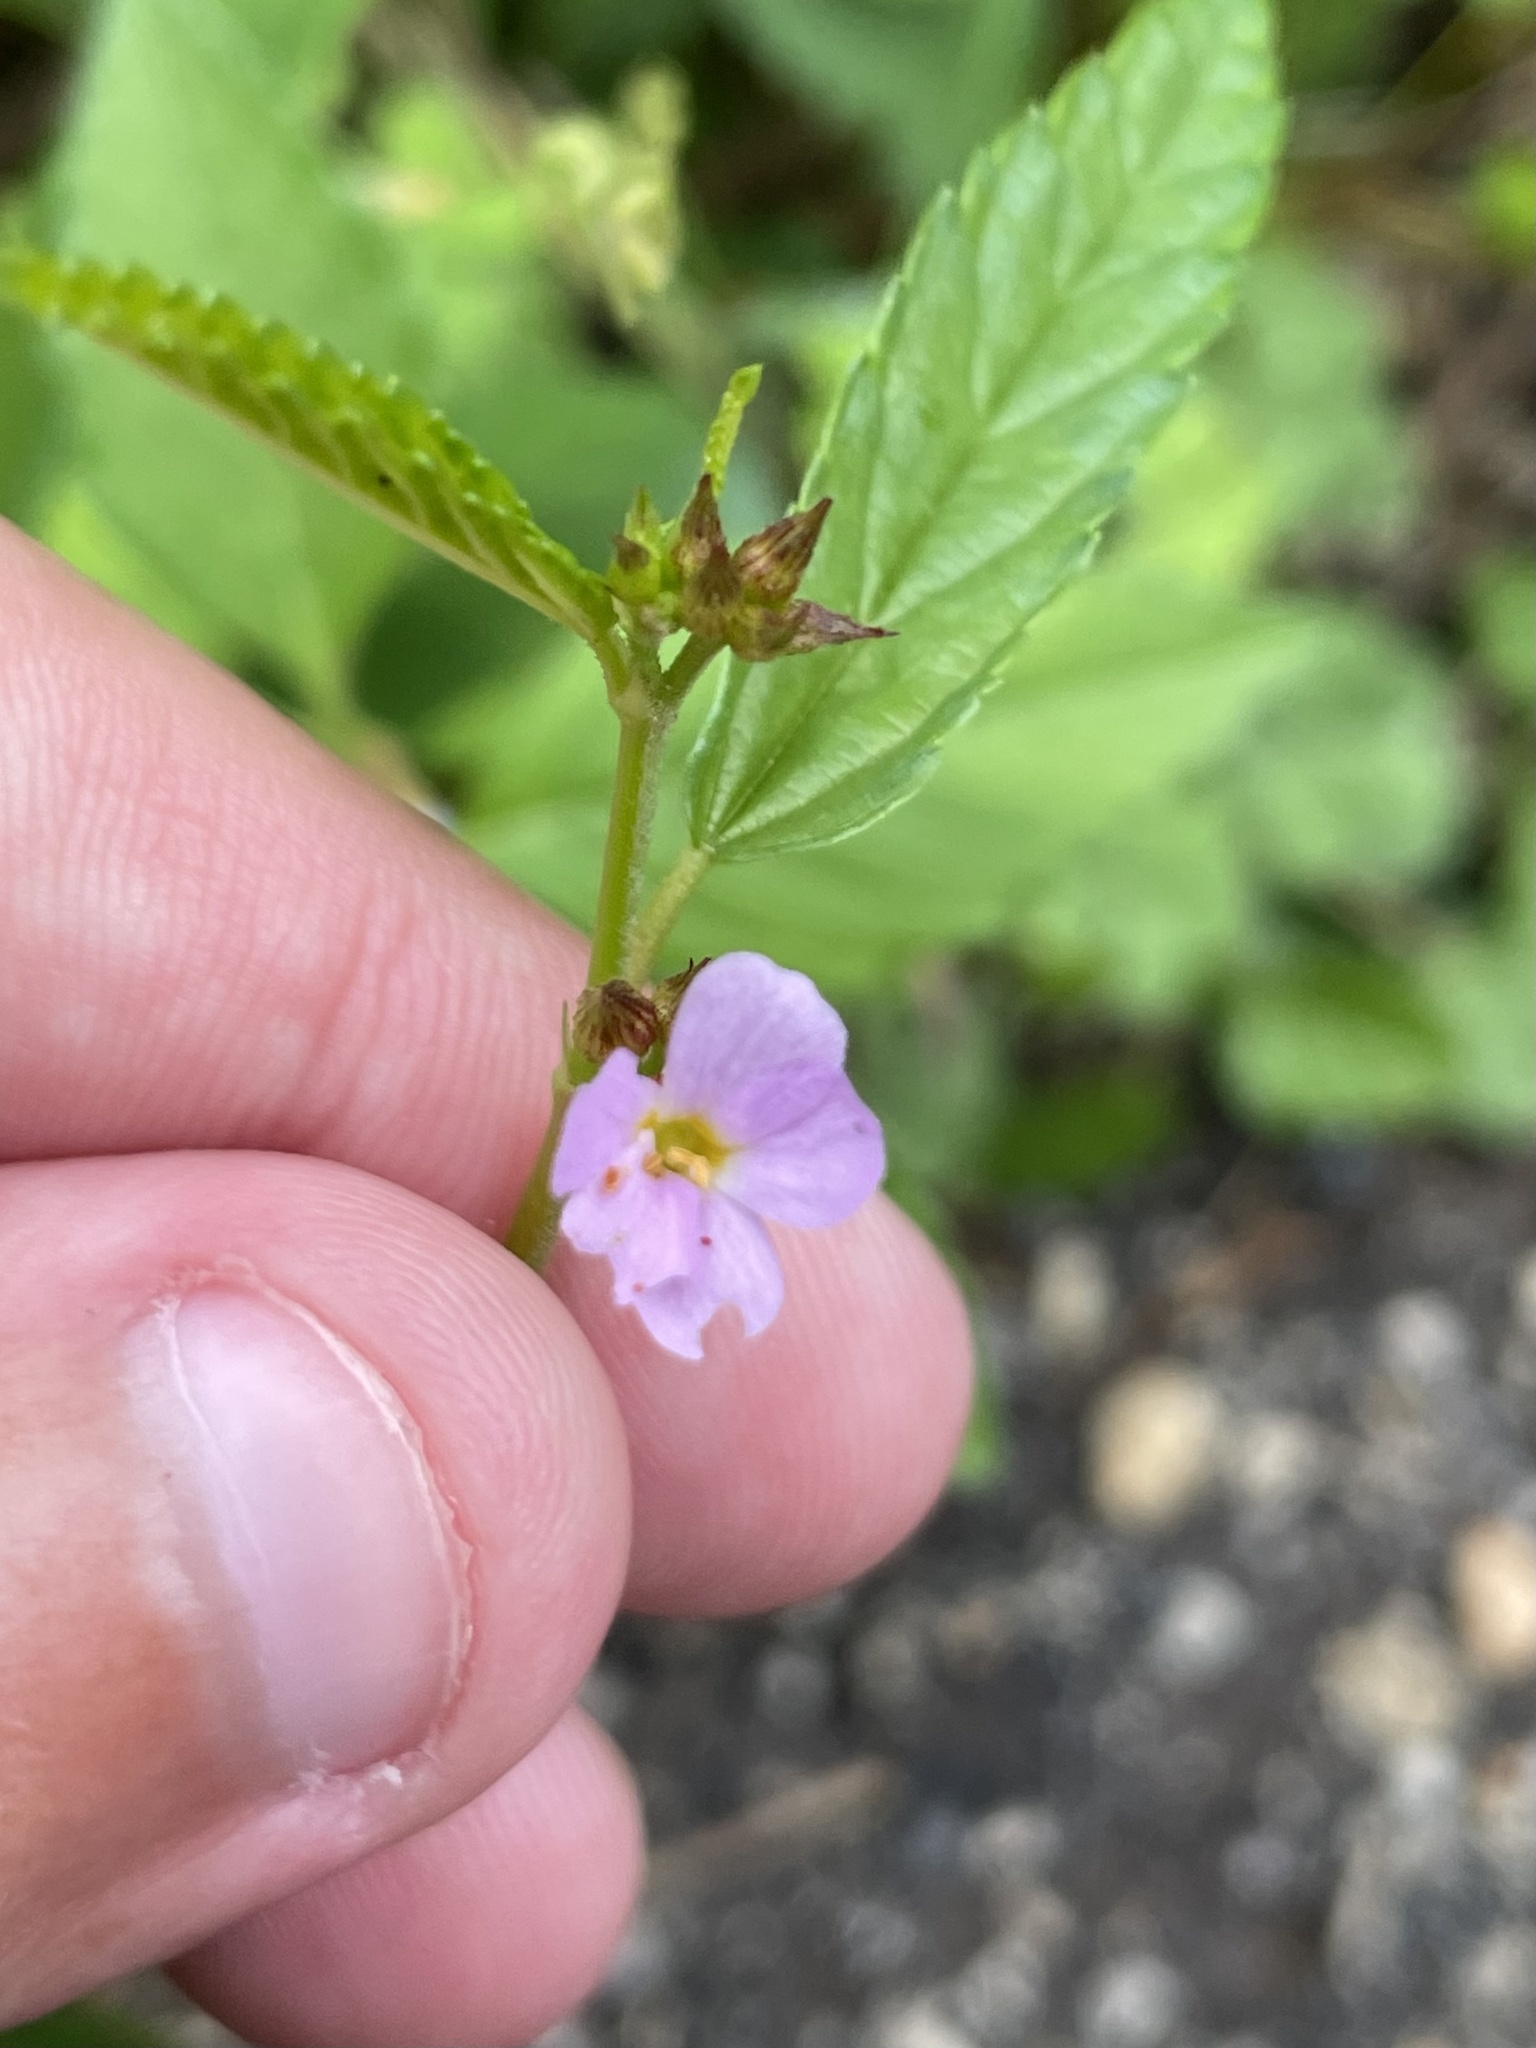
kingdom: Plantae
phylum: Tracheophyta
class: Magnoliopsida
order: Malvales
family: Malvaceae
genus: Melochia
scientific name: Melochia pyramidata
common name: Pyramidflower
